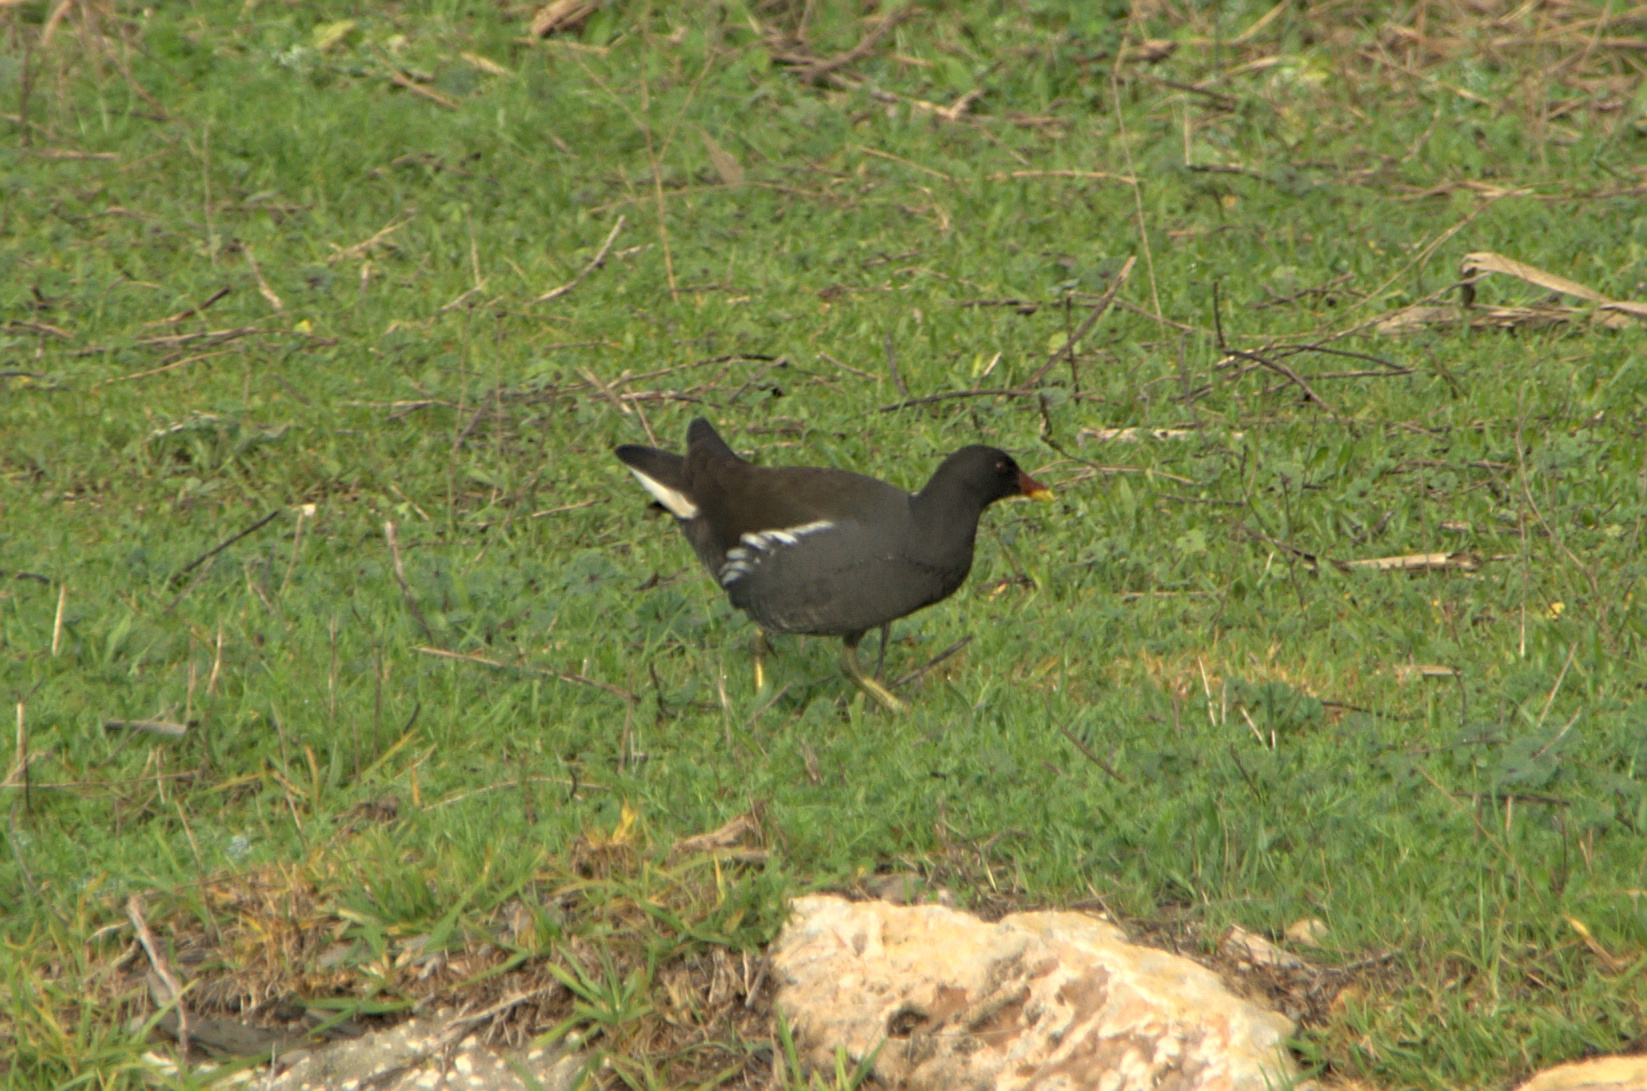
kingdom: Animalia
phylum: Chordata
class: Aves
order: Gruiformes
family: Rallidae
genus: Gallinula
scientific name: Gallinula chloropus
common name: Common moorhen
